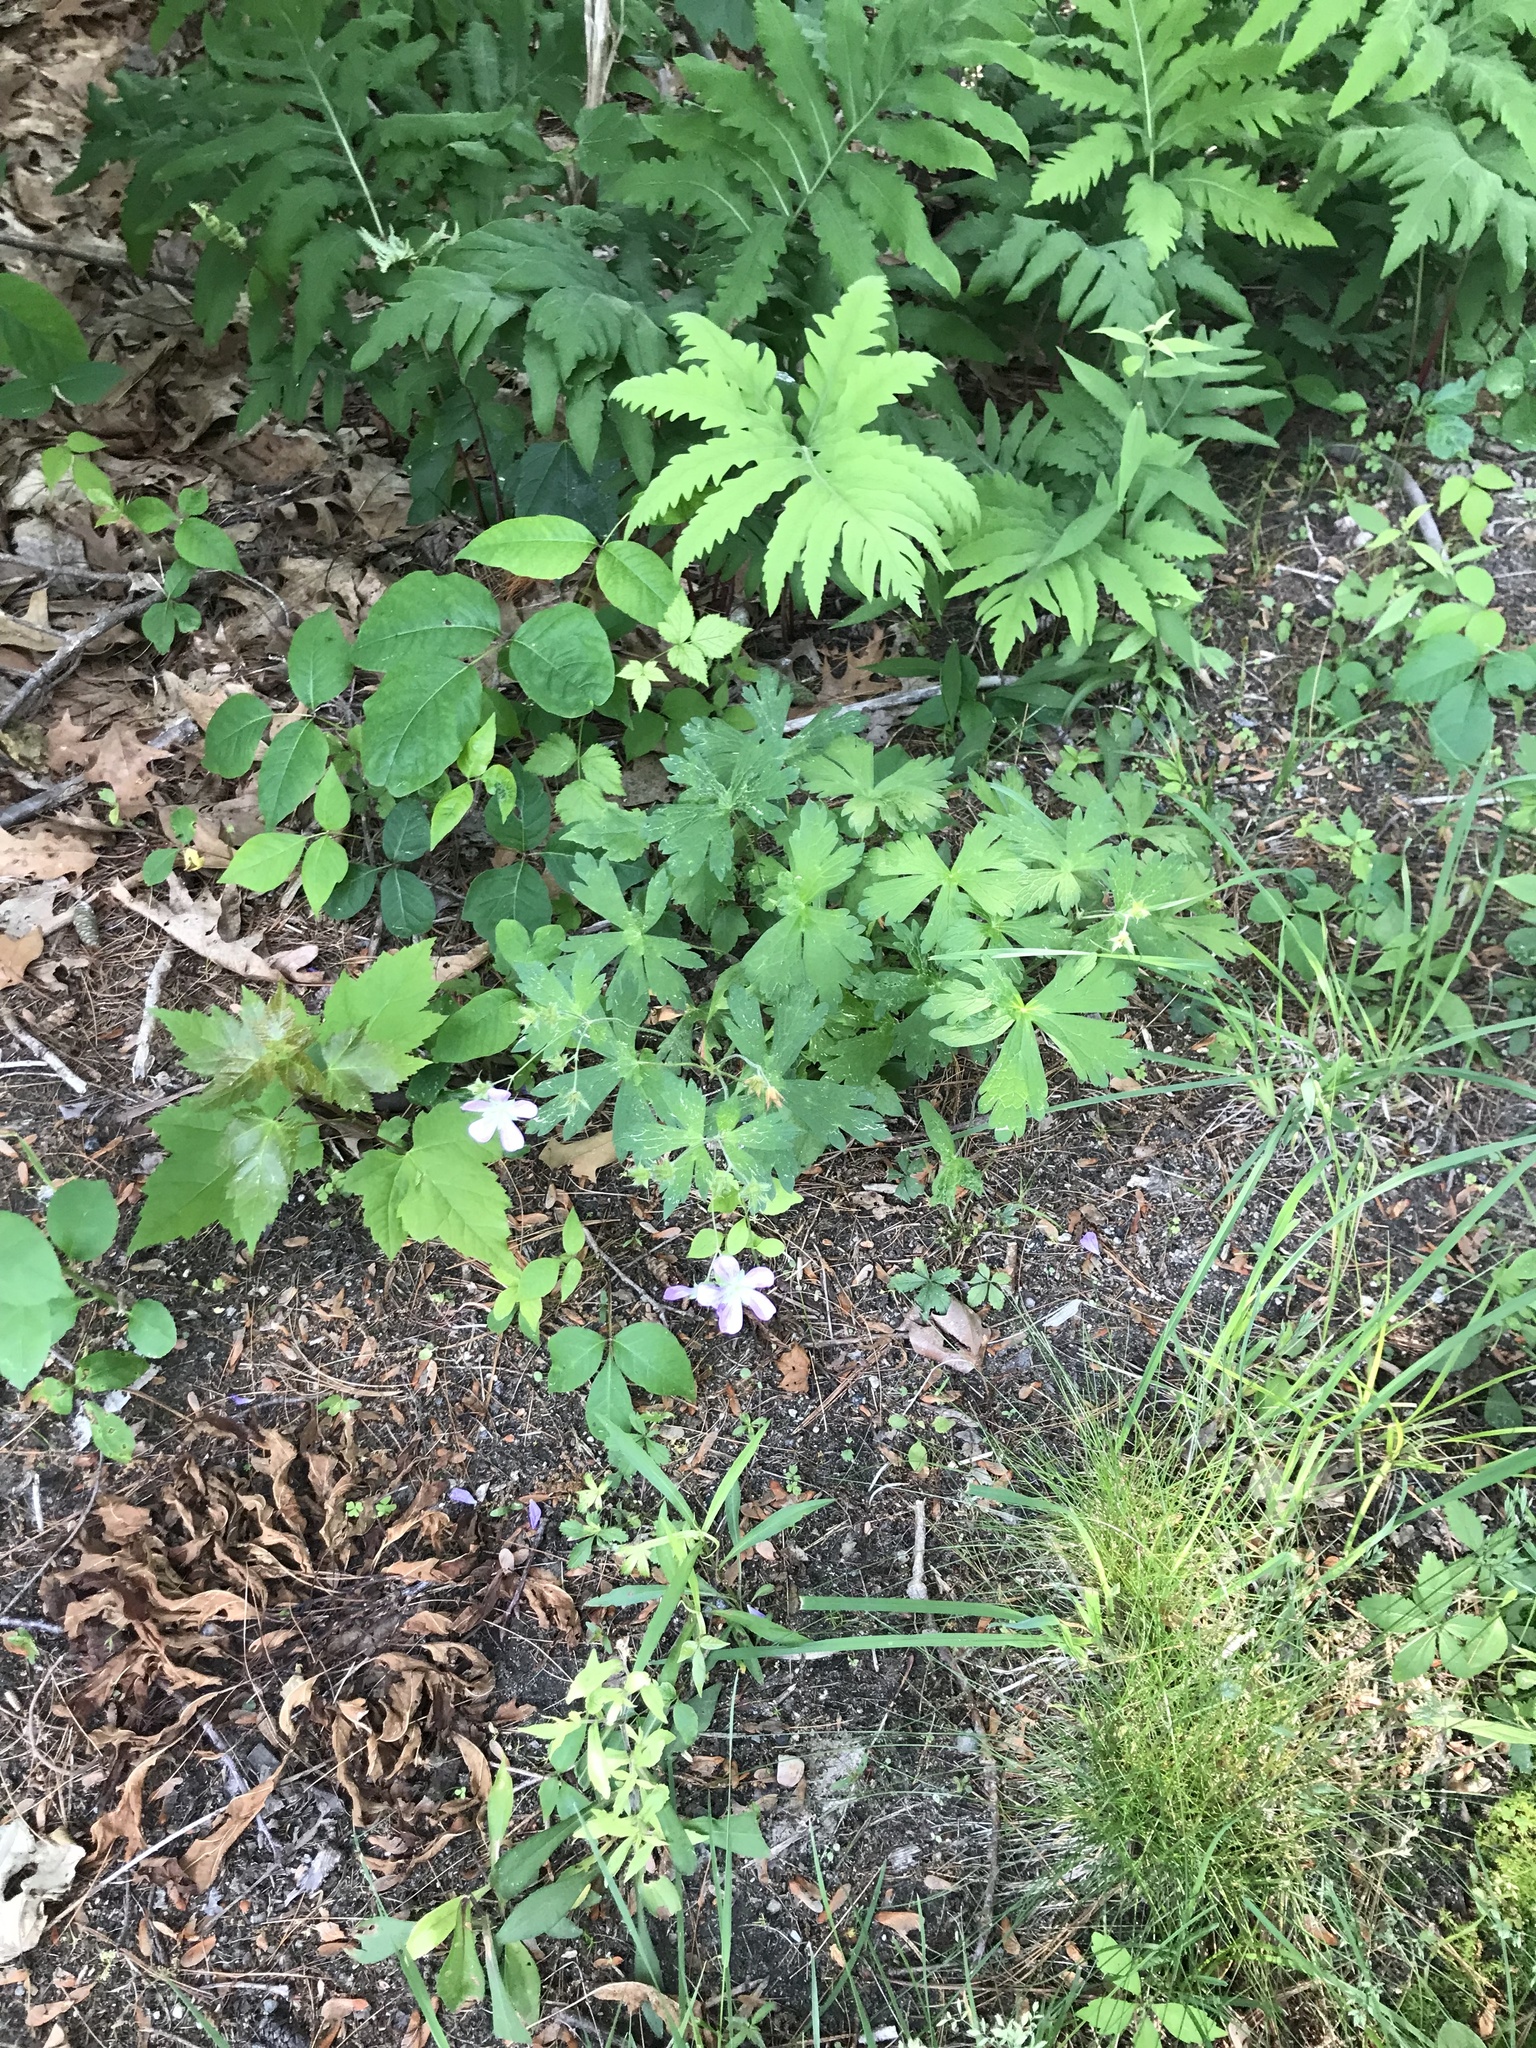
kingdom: Plantae
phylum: Tracheophyta
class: Magnoliopsida
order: Geraniales
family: Geraniaceae
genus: Geranium
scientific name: Geranium maculatum
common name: Spotted geranium
